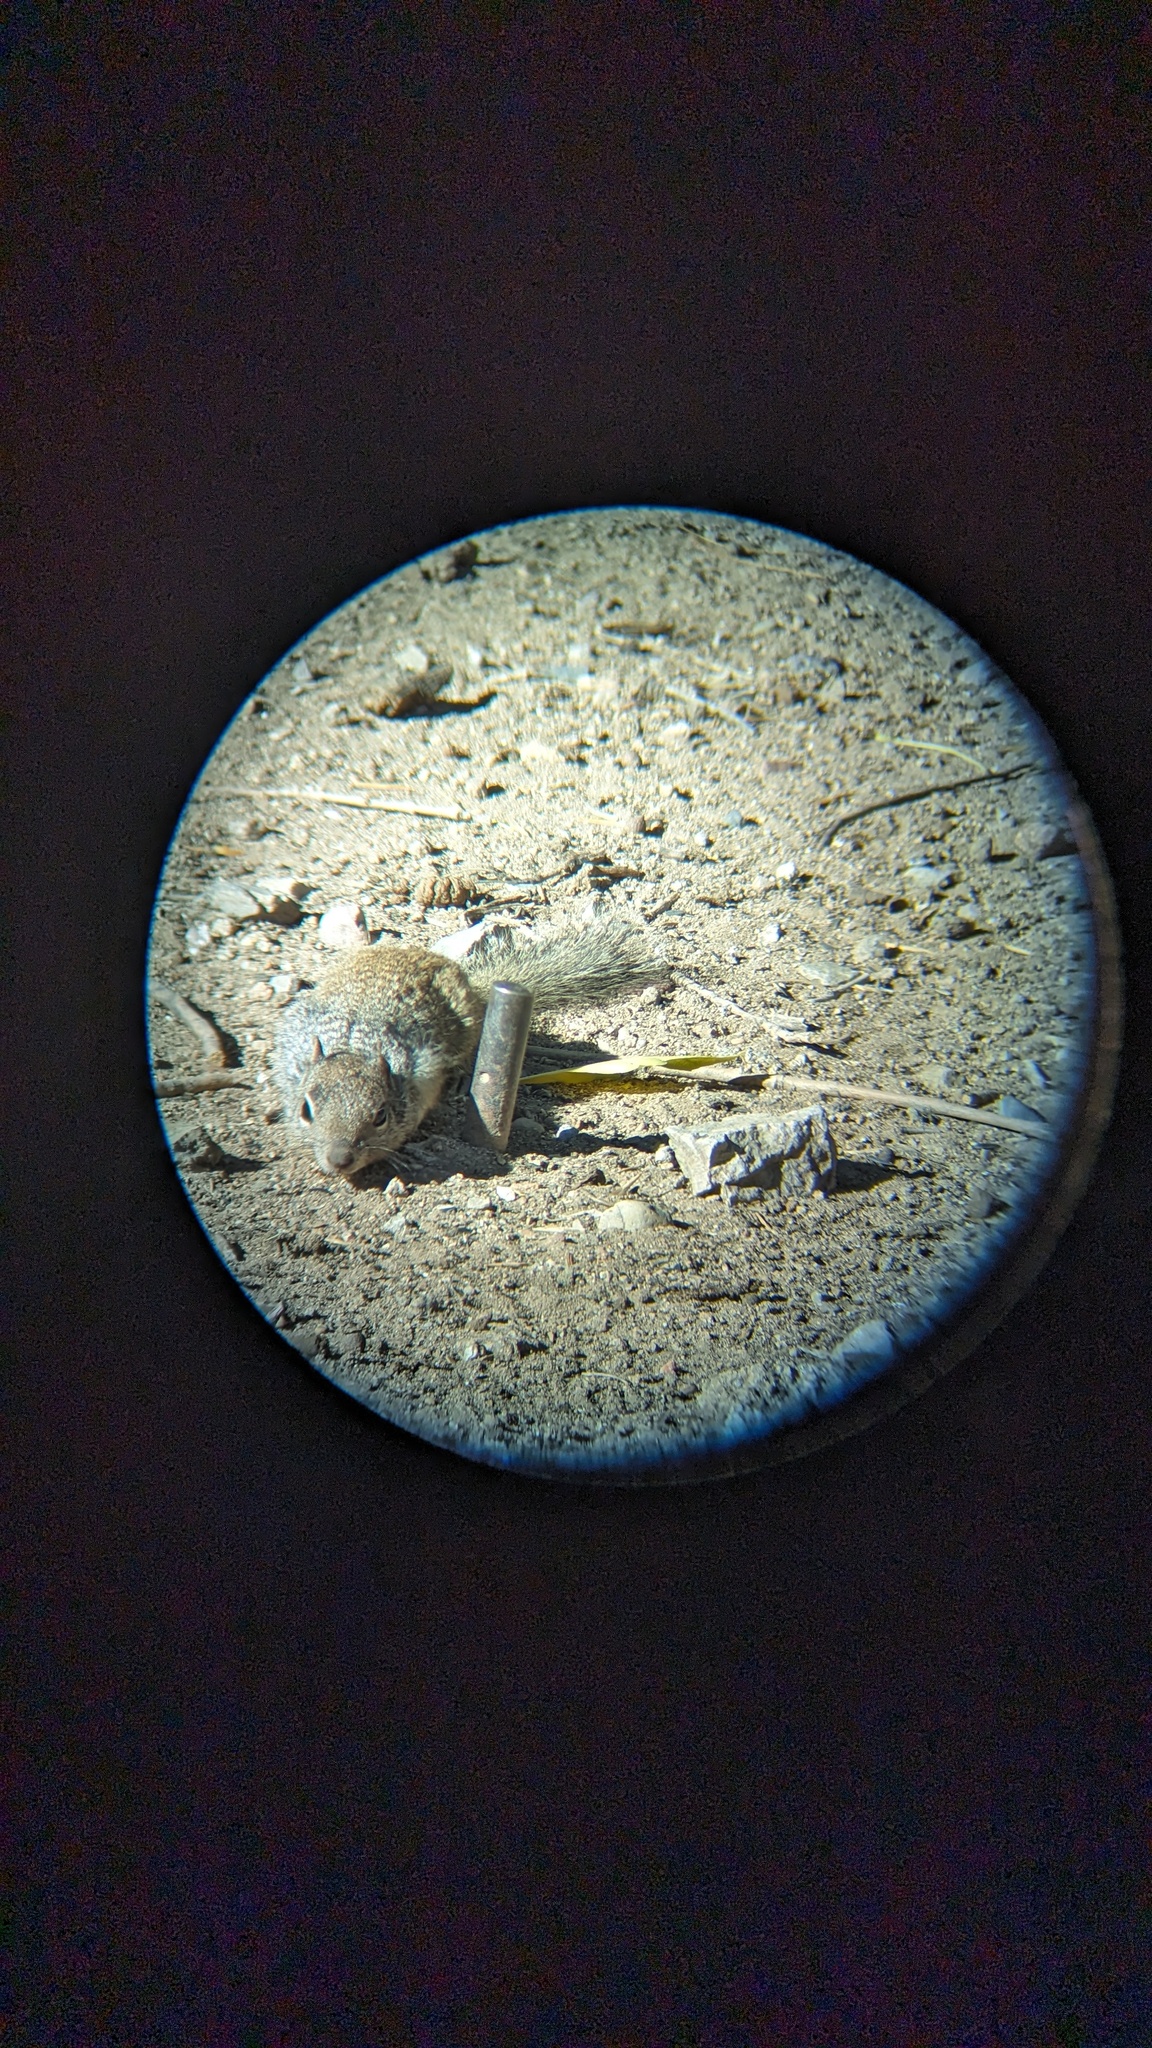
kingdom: Animalia
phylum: Chordata
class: Mammalia
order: Rodentia
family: Sciuridae
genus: Otospermophilus
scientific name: Otospermophilus variegatus
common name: Rock squirrel
